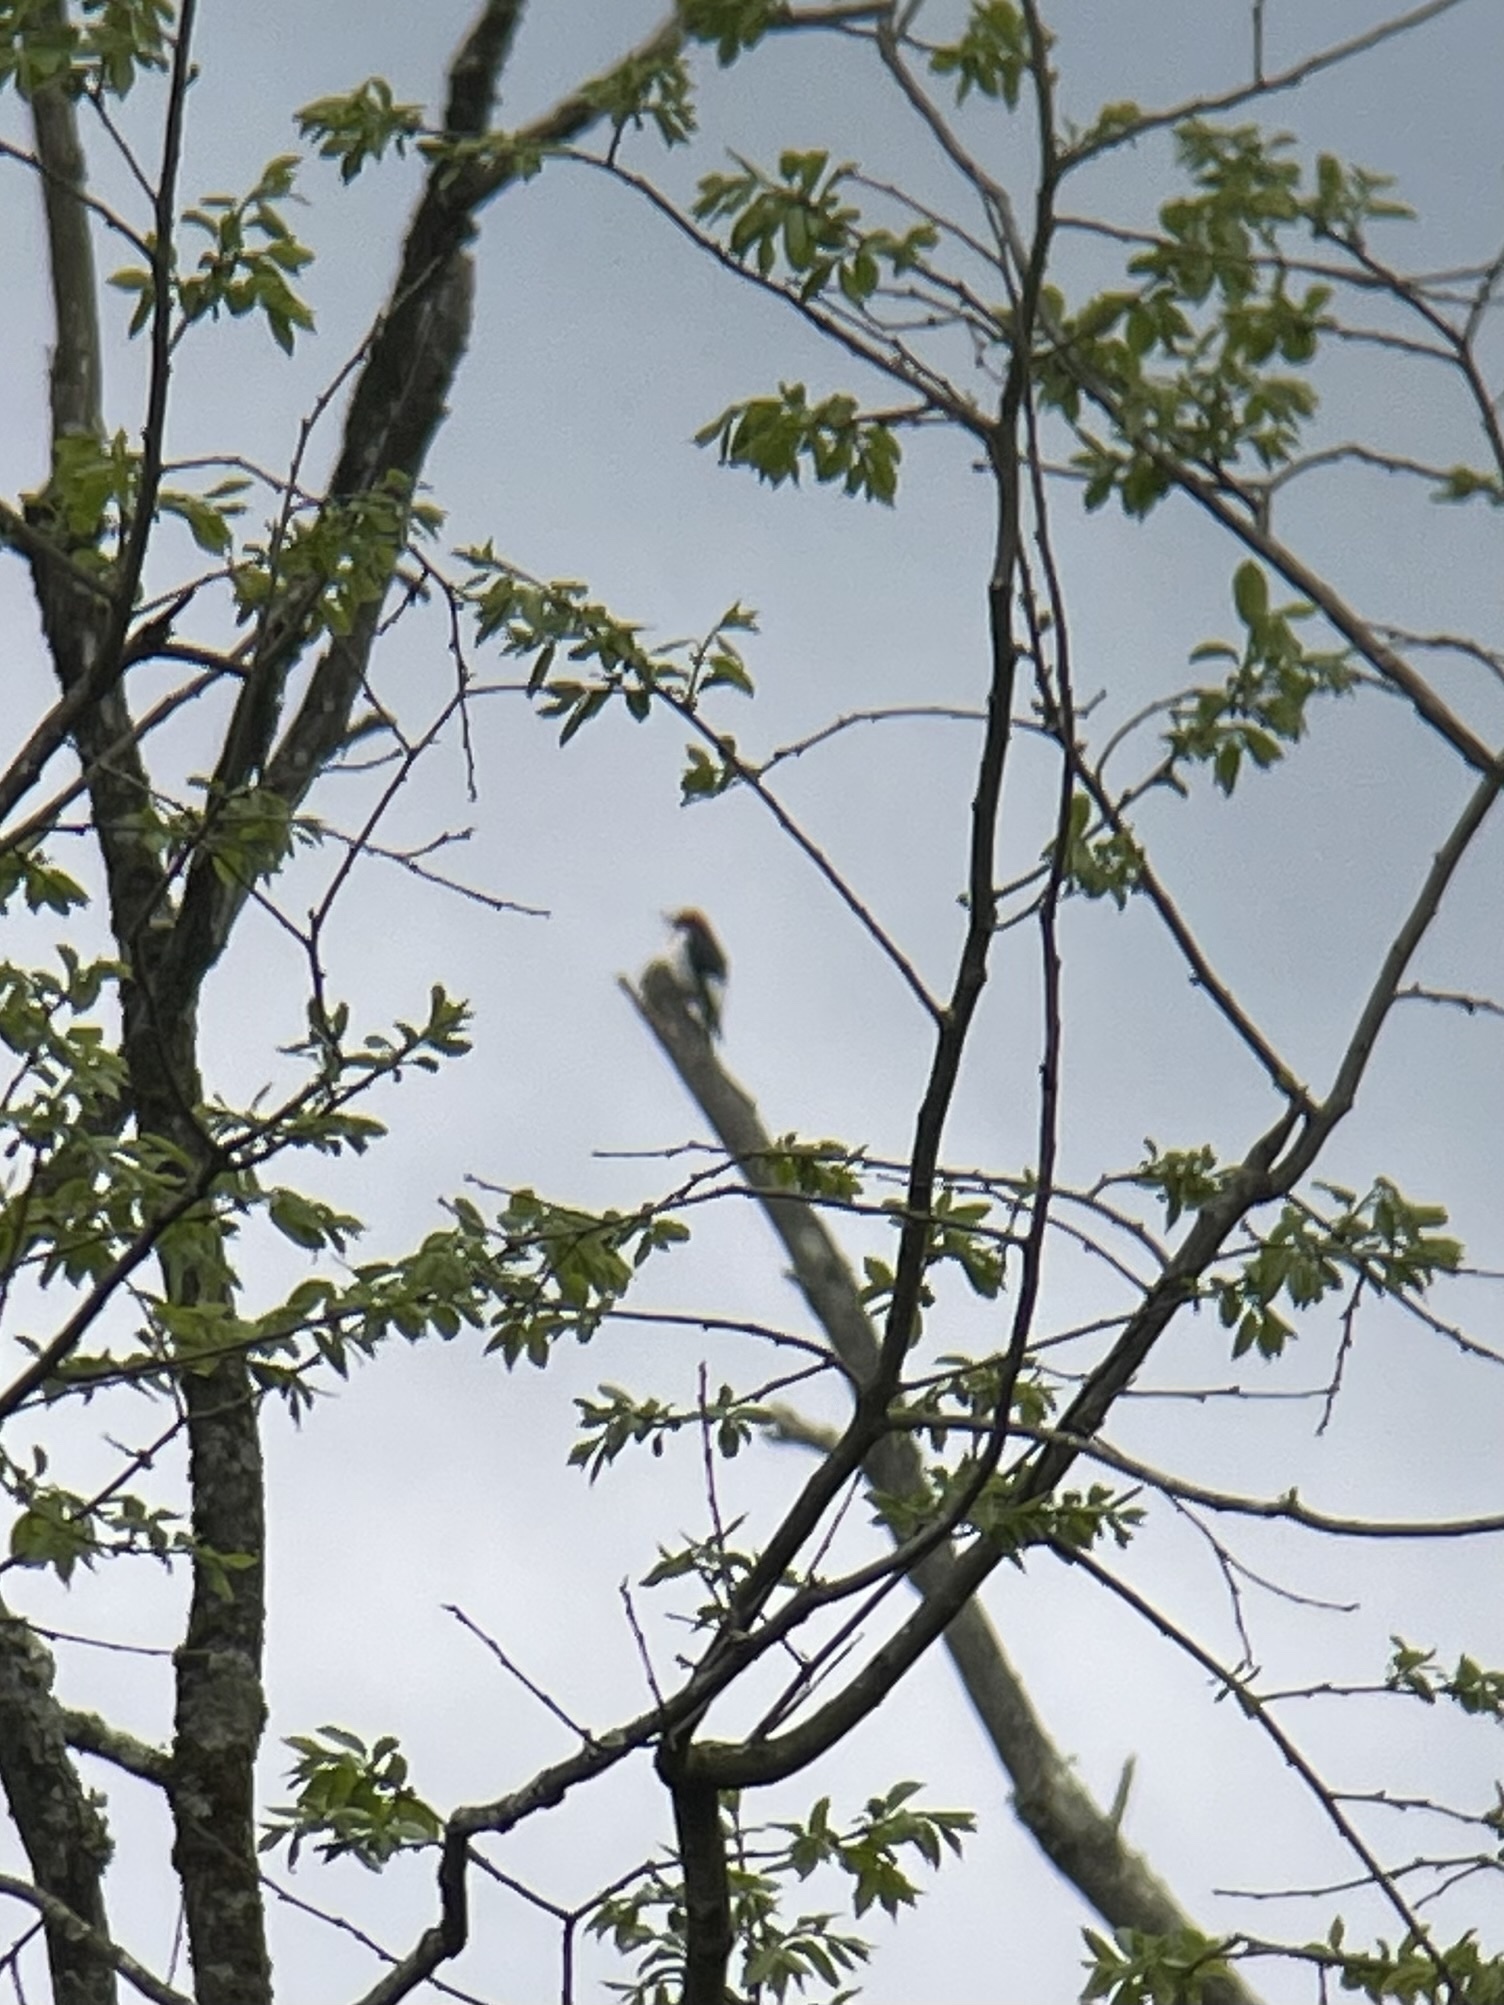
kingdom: Animalia
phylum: Chordata
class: Aves
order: Piciformes
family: Picidae
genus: Melanerpes
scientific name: Melanerpes erythrocephalus
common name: Red-headed woodpecker
